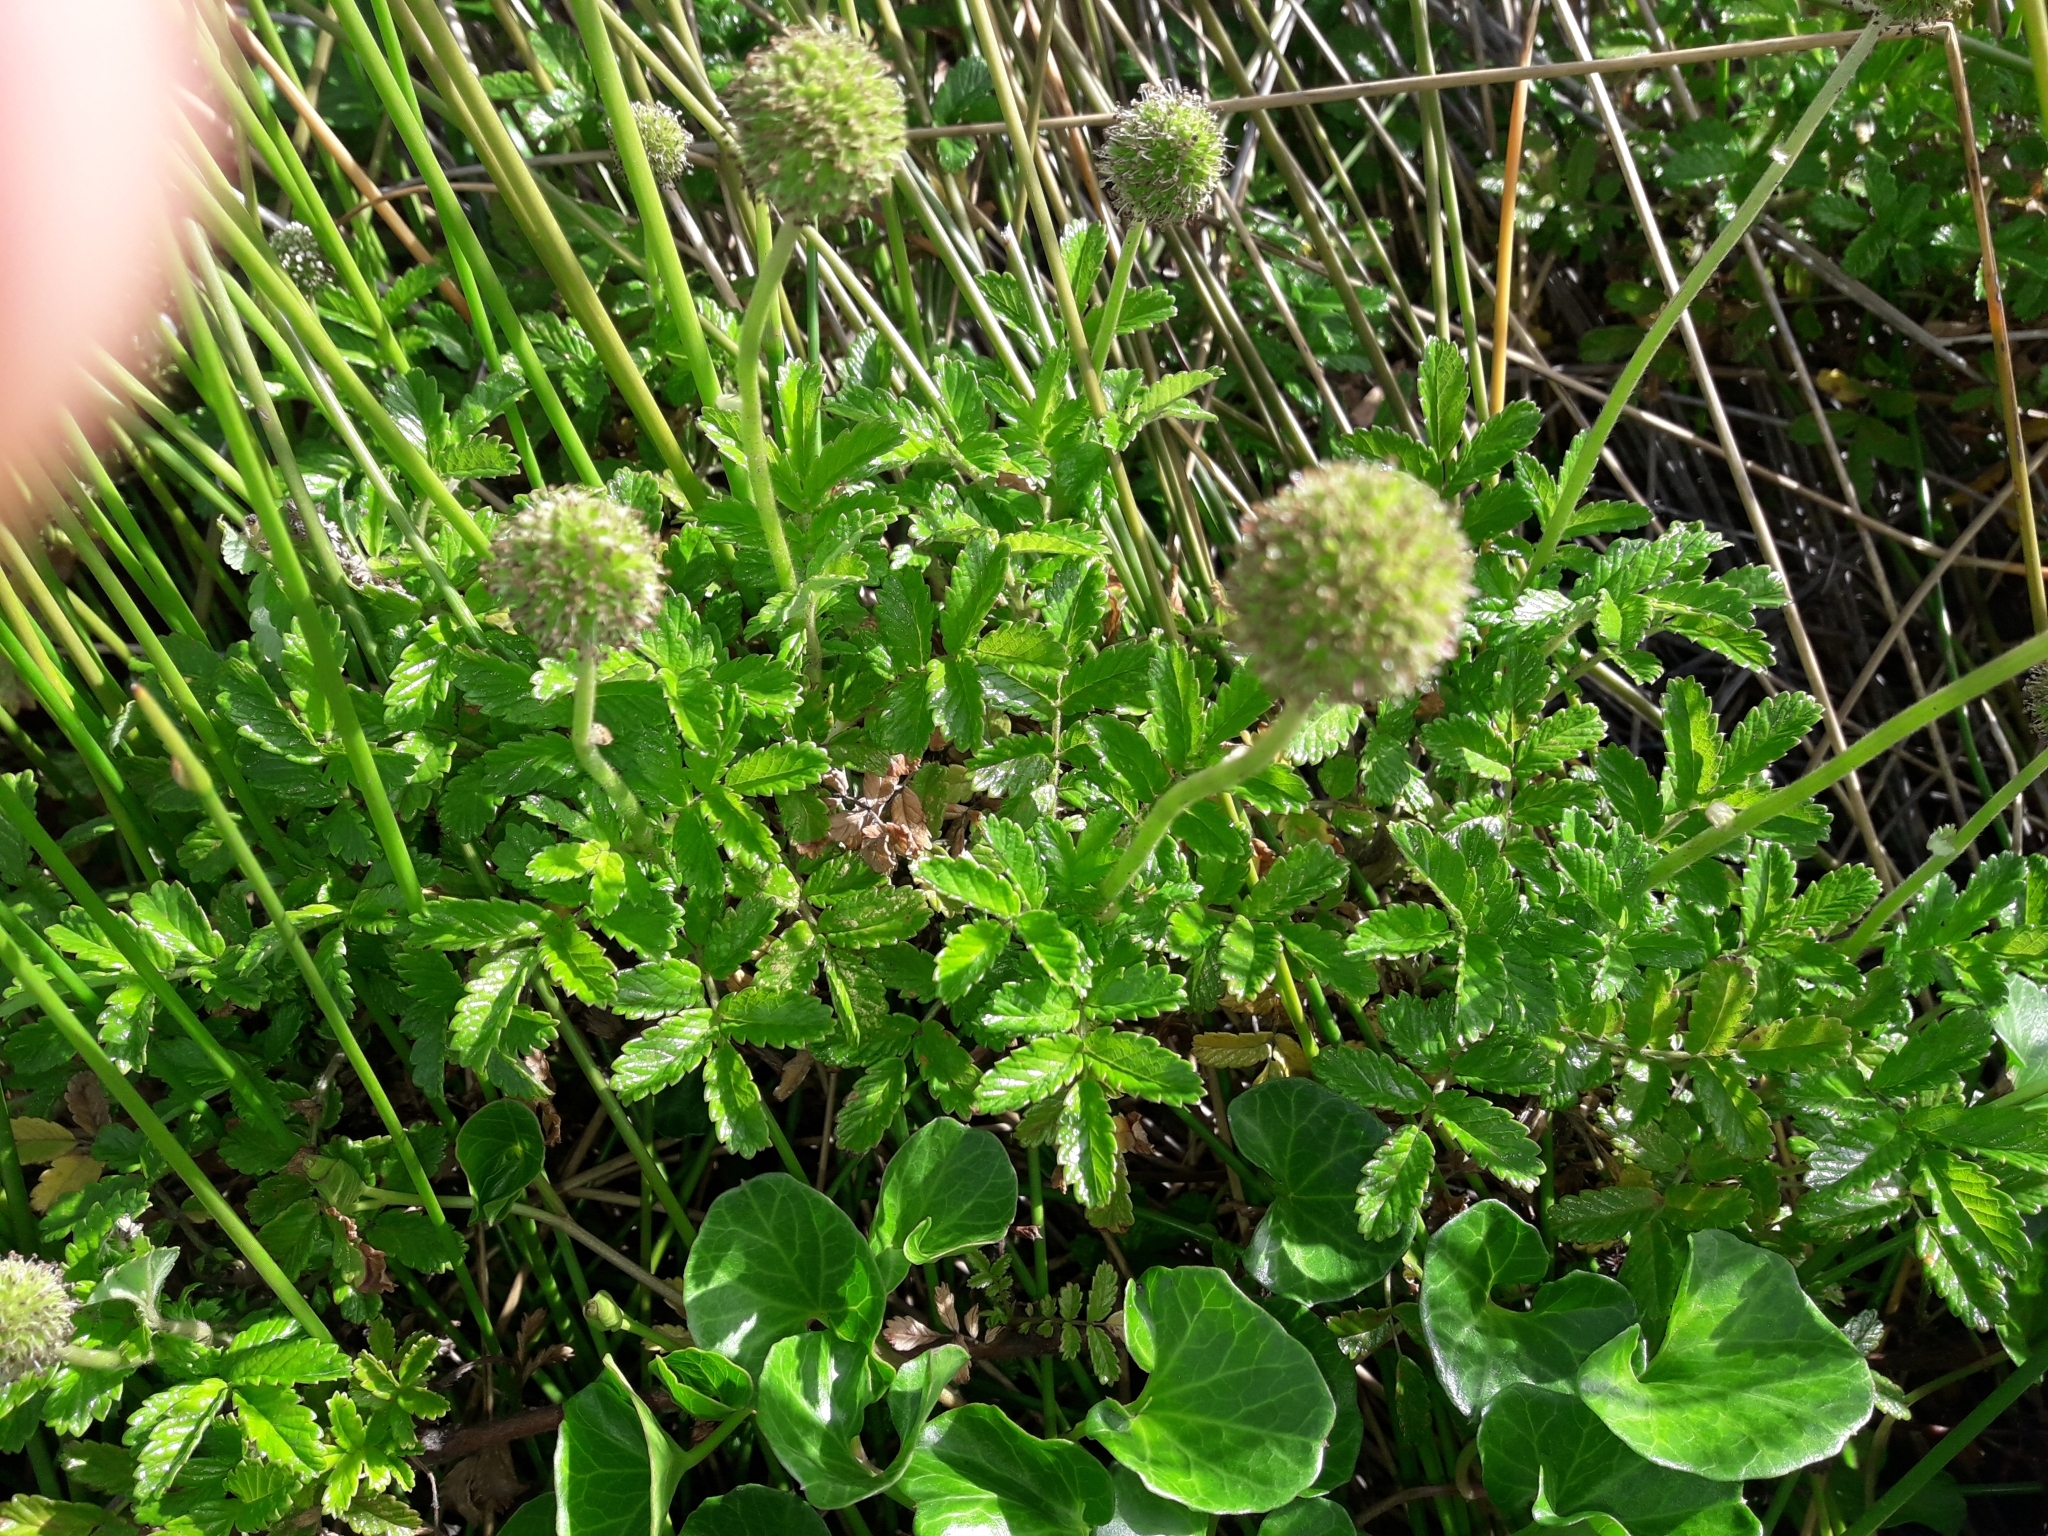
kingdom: Plantae
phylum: Tracheophyta
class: Magnoliopsida
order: Rosales
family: Rosaceae
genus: Acaena
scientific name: Acaena pallida
